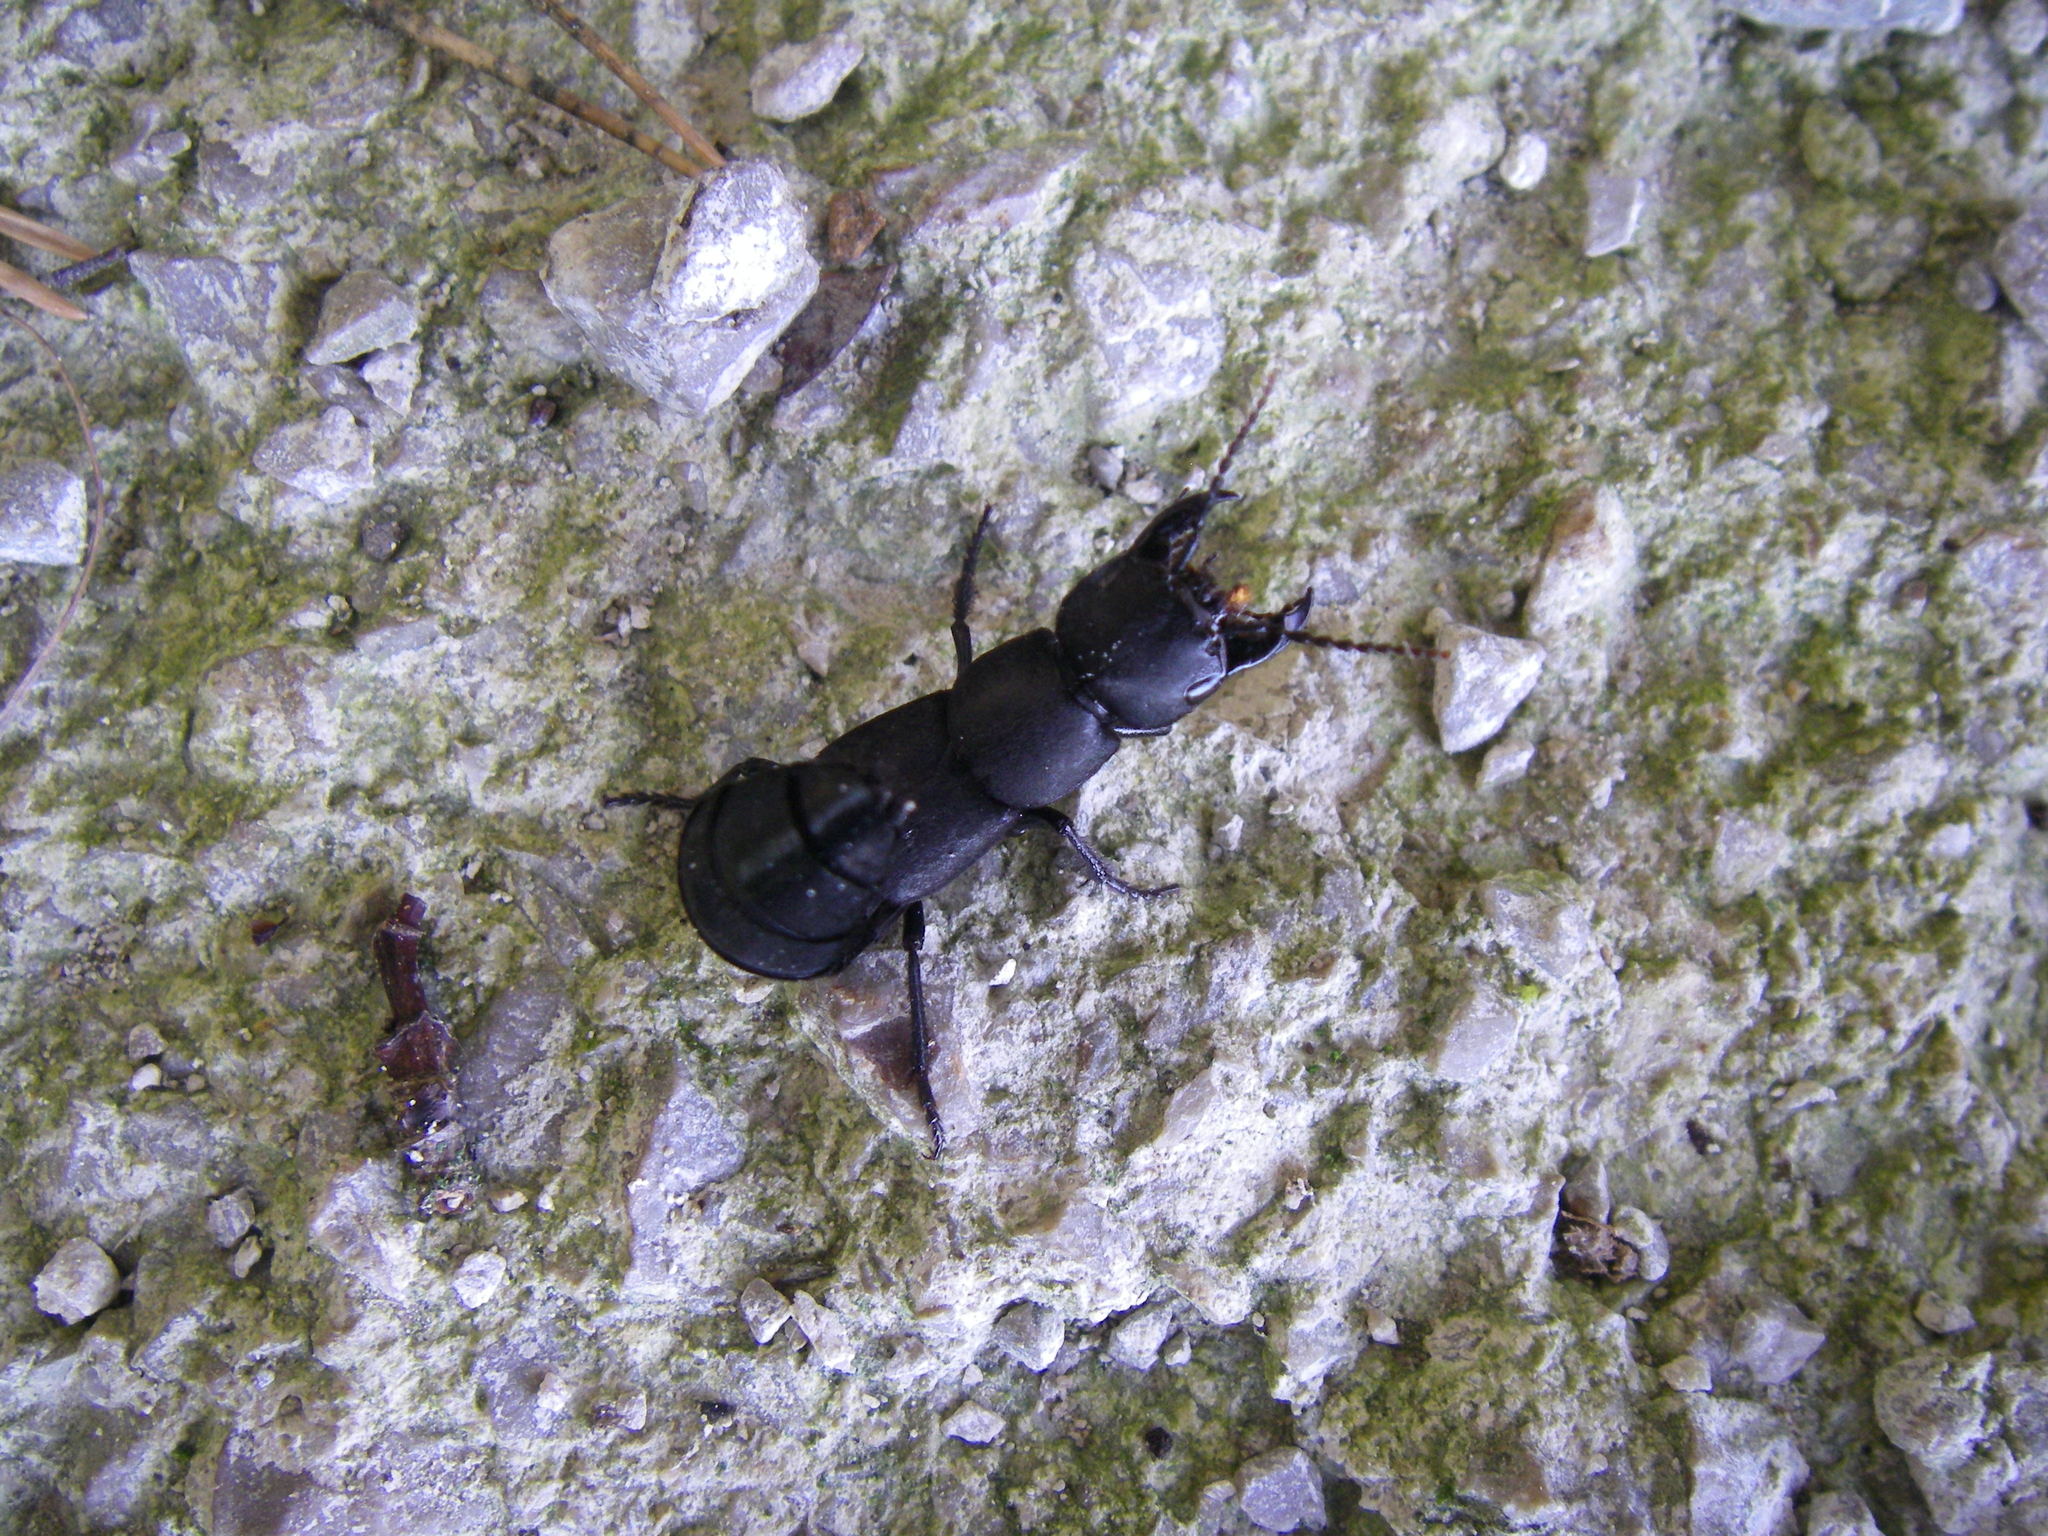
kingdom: Animalia
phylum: Arthropoda
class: Insecta
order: Coleoptera
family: Staphylinidae
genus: Ocypus
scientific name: Ocypus olens
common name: Devil's coach-horse
